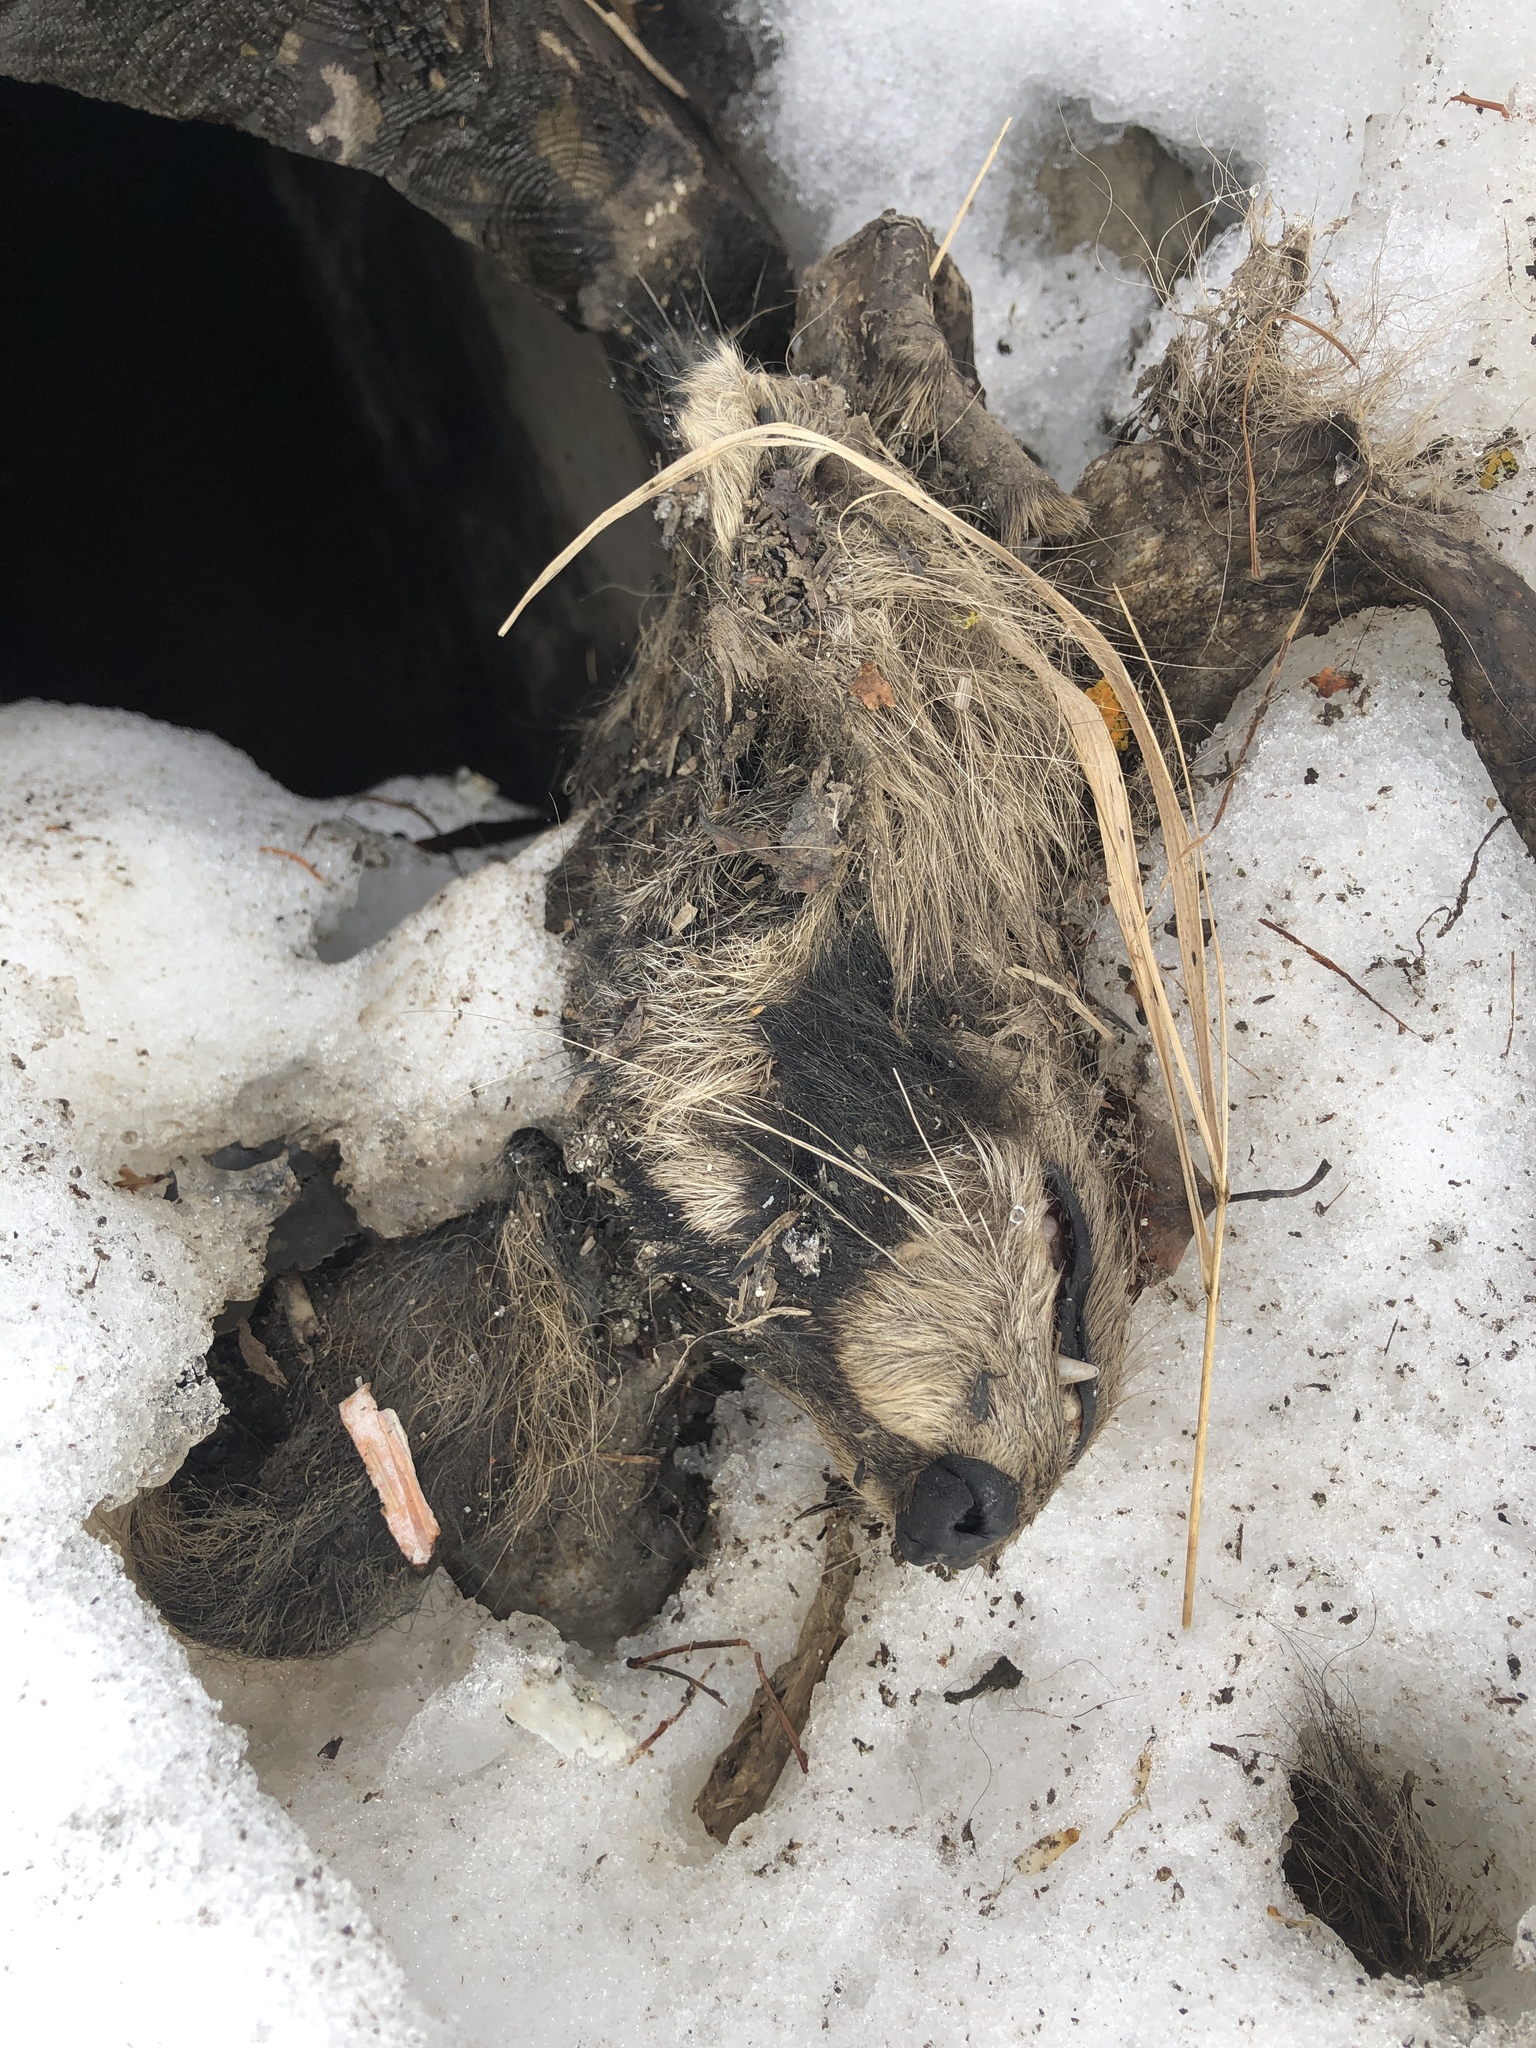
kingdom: Animalia
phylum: Chordata
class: Mammalia
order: Carnivora
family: Procyonidae
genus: Procyon
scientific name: Procyon lotor
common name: Raccoon
